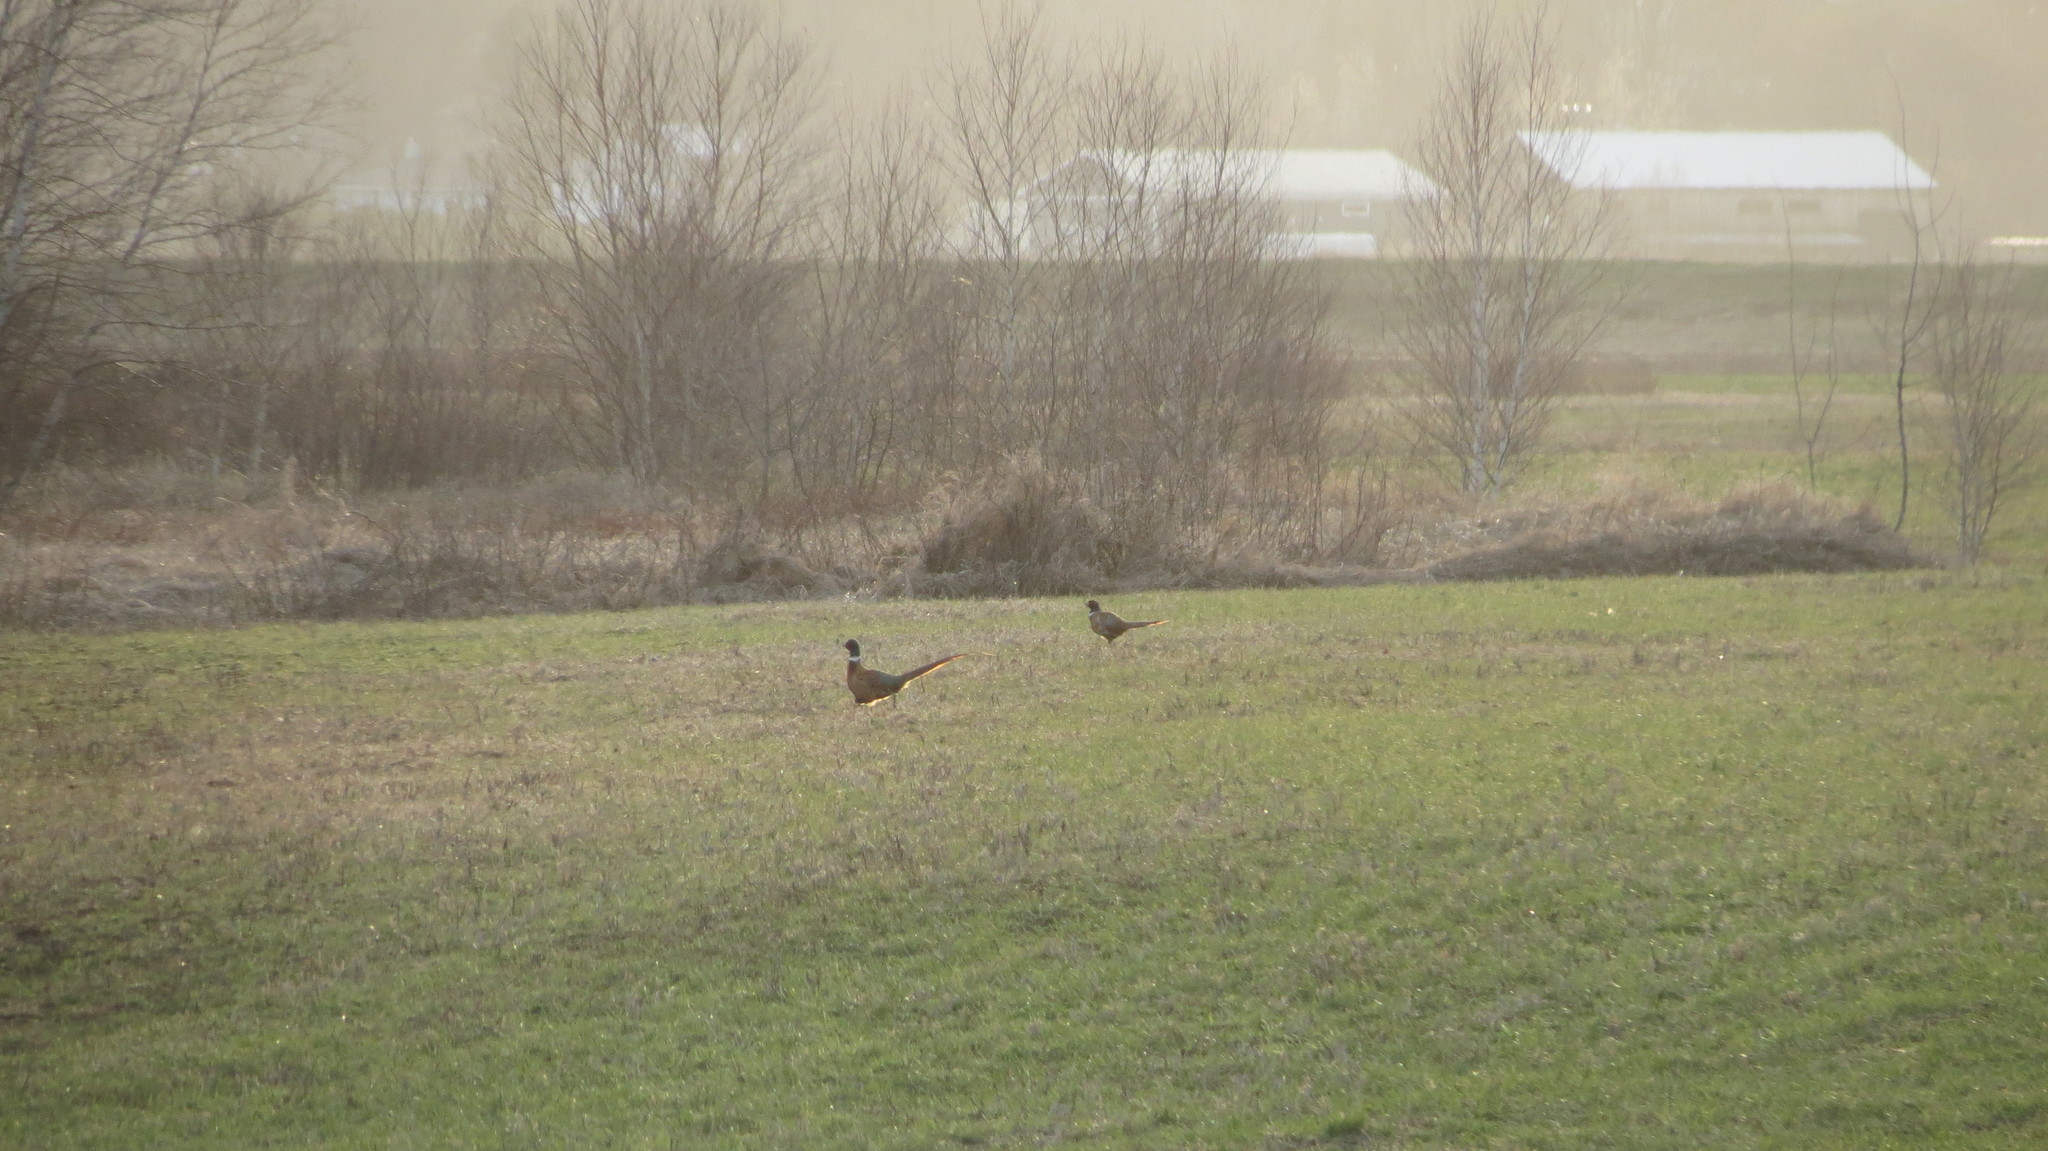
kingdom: Animalia
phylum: Chordata
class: Aves
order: Galliformes
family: Phasianidae
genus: Phasianus
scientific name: Phasianus colchicus
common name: Common pheasant
